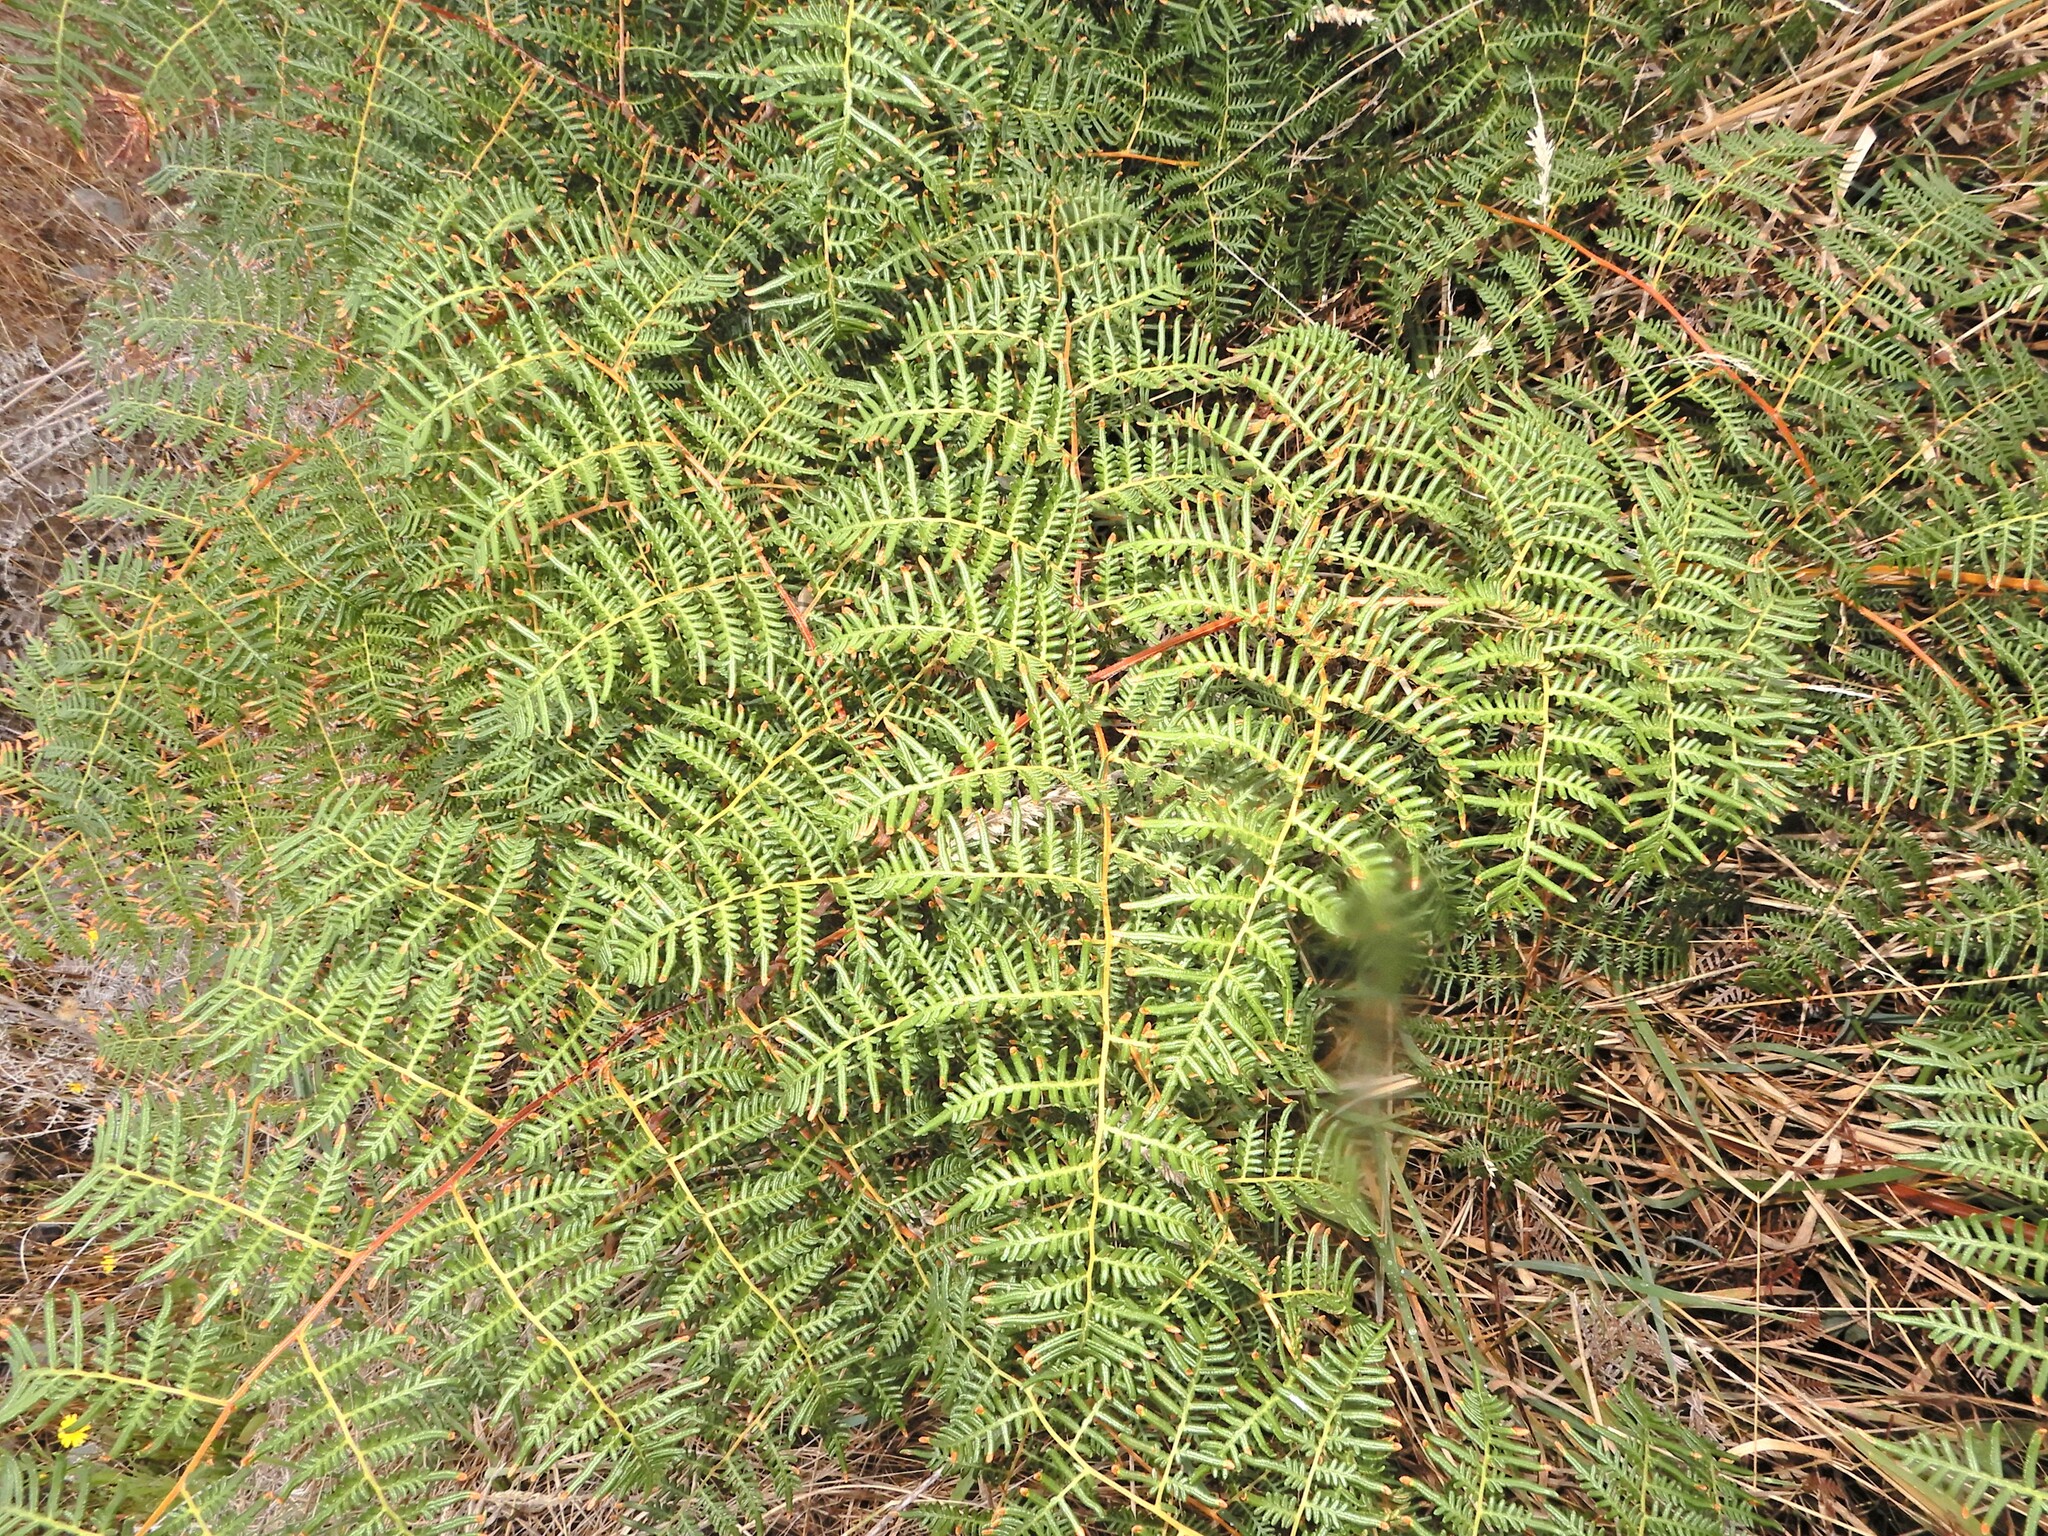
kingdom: Plantae
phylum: Tracheophyta
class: Polypodiopsida
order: Polypodiales
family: Dennstaedtiaceae
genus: Pteridium
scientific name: Pteridium esculentum
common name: Bracken fern
